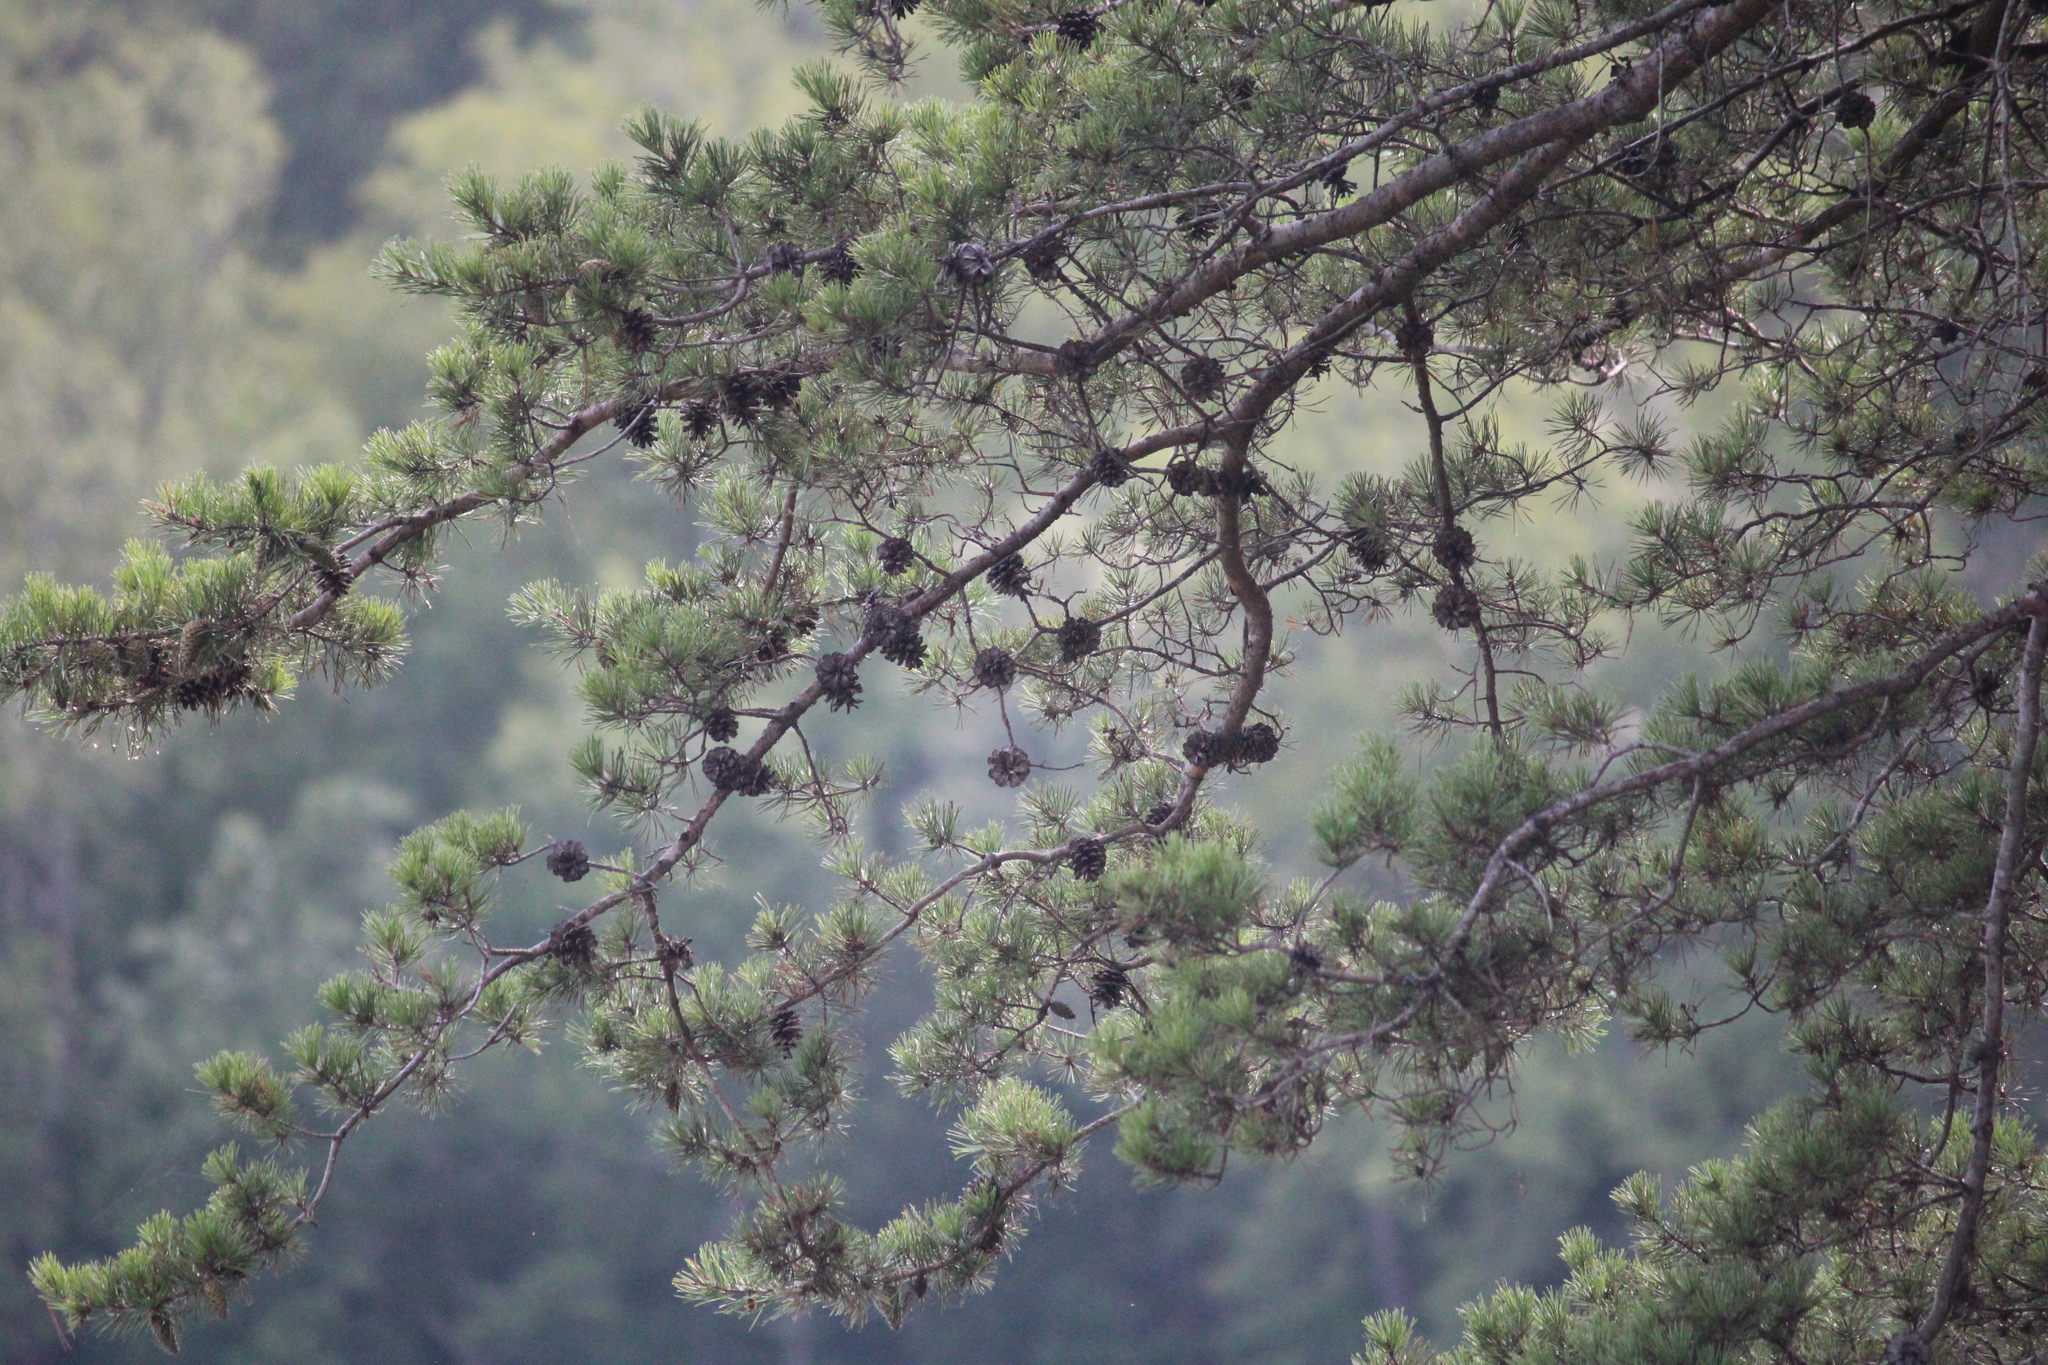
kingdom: Plantae
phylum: Tracheophyta
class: Pinopsida
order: Pinales
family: Pinaceae
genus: Pinus
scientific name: Pinus virginiana
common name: Scrub pine
